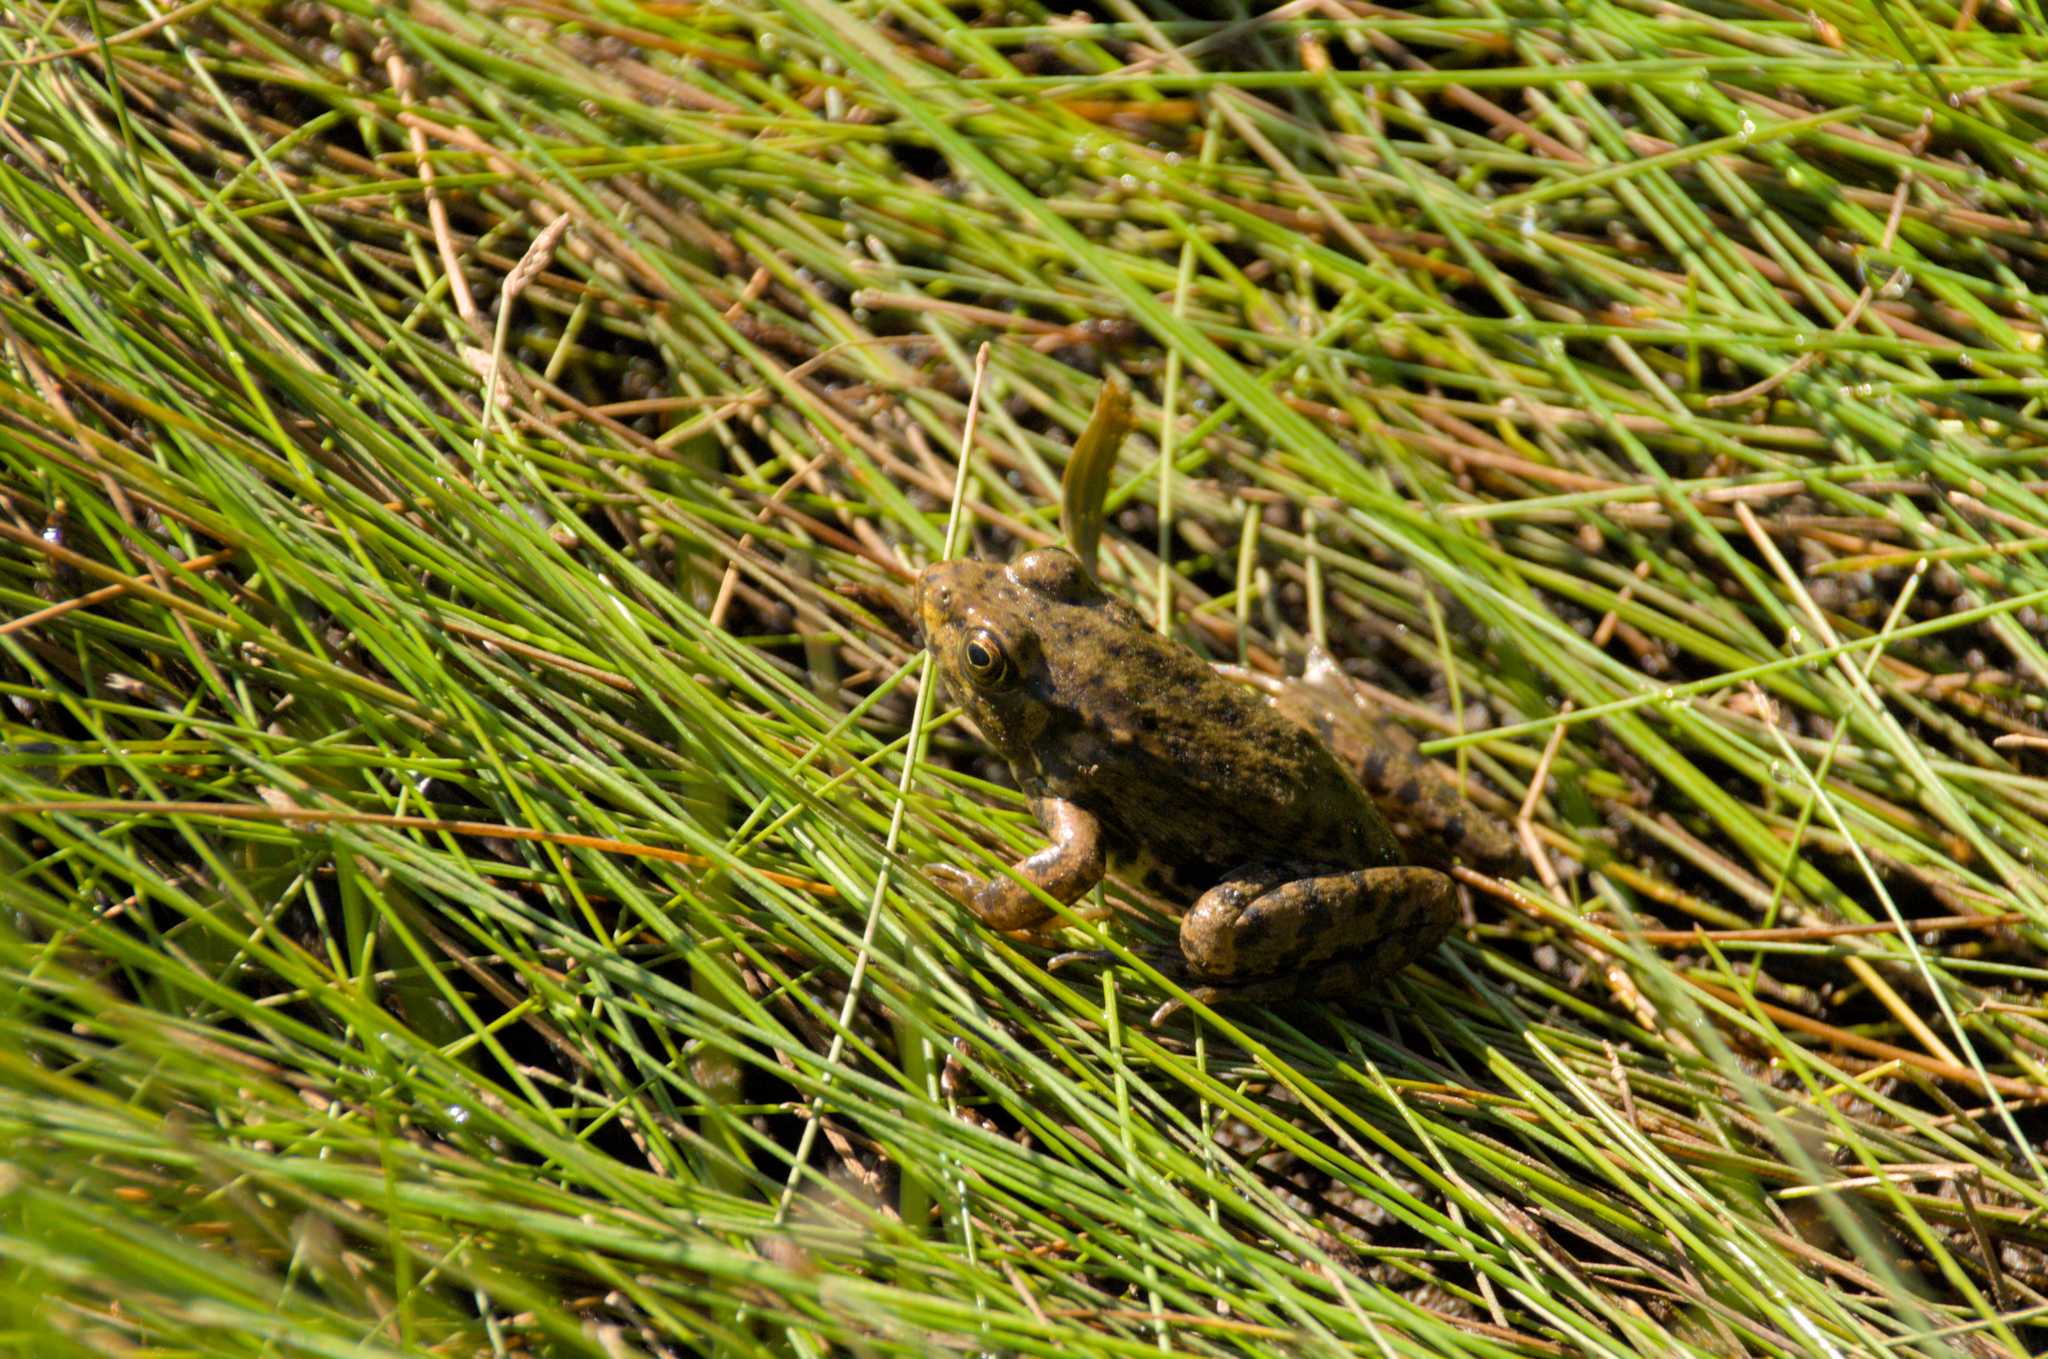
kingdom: Animalia
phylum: Chordata
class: Amphibia
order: Anura
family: Ranidae
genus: Lithobates
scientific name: Lithobates clamitans
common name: Green frog
